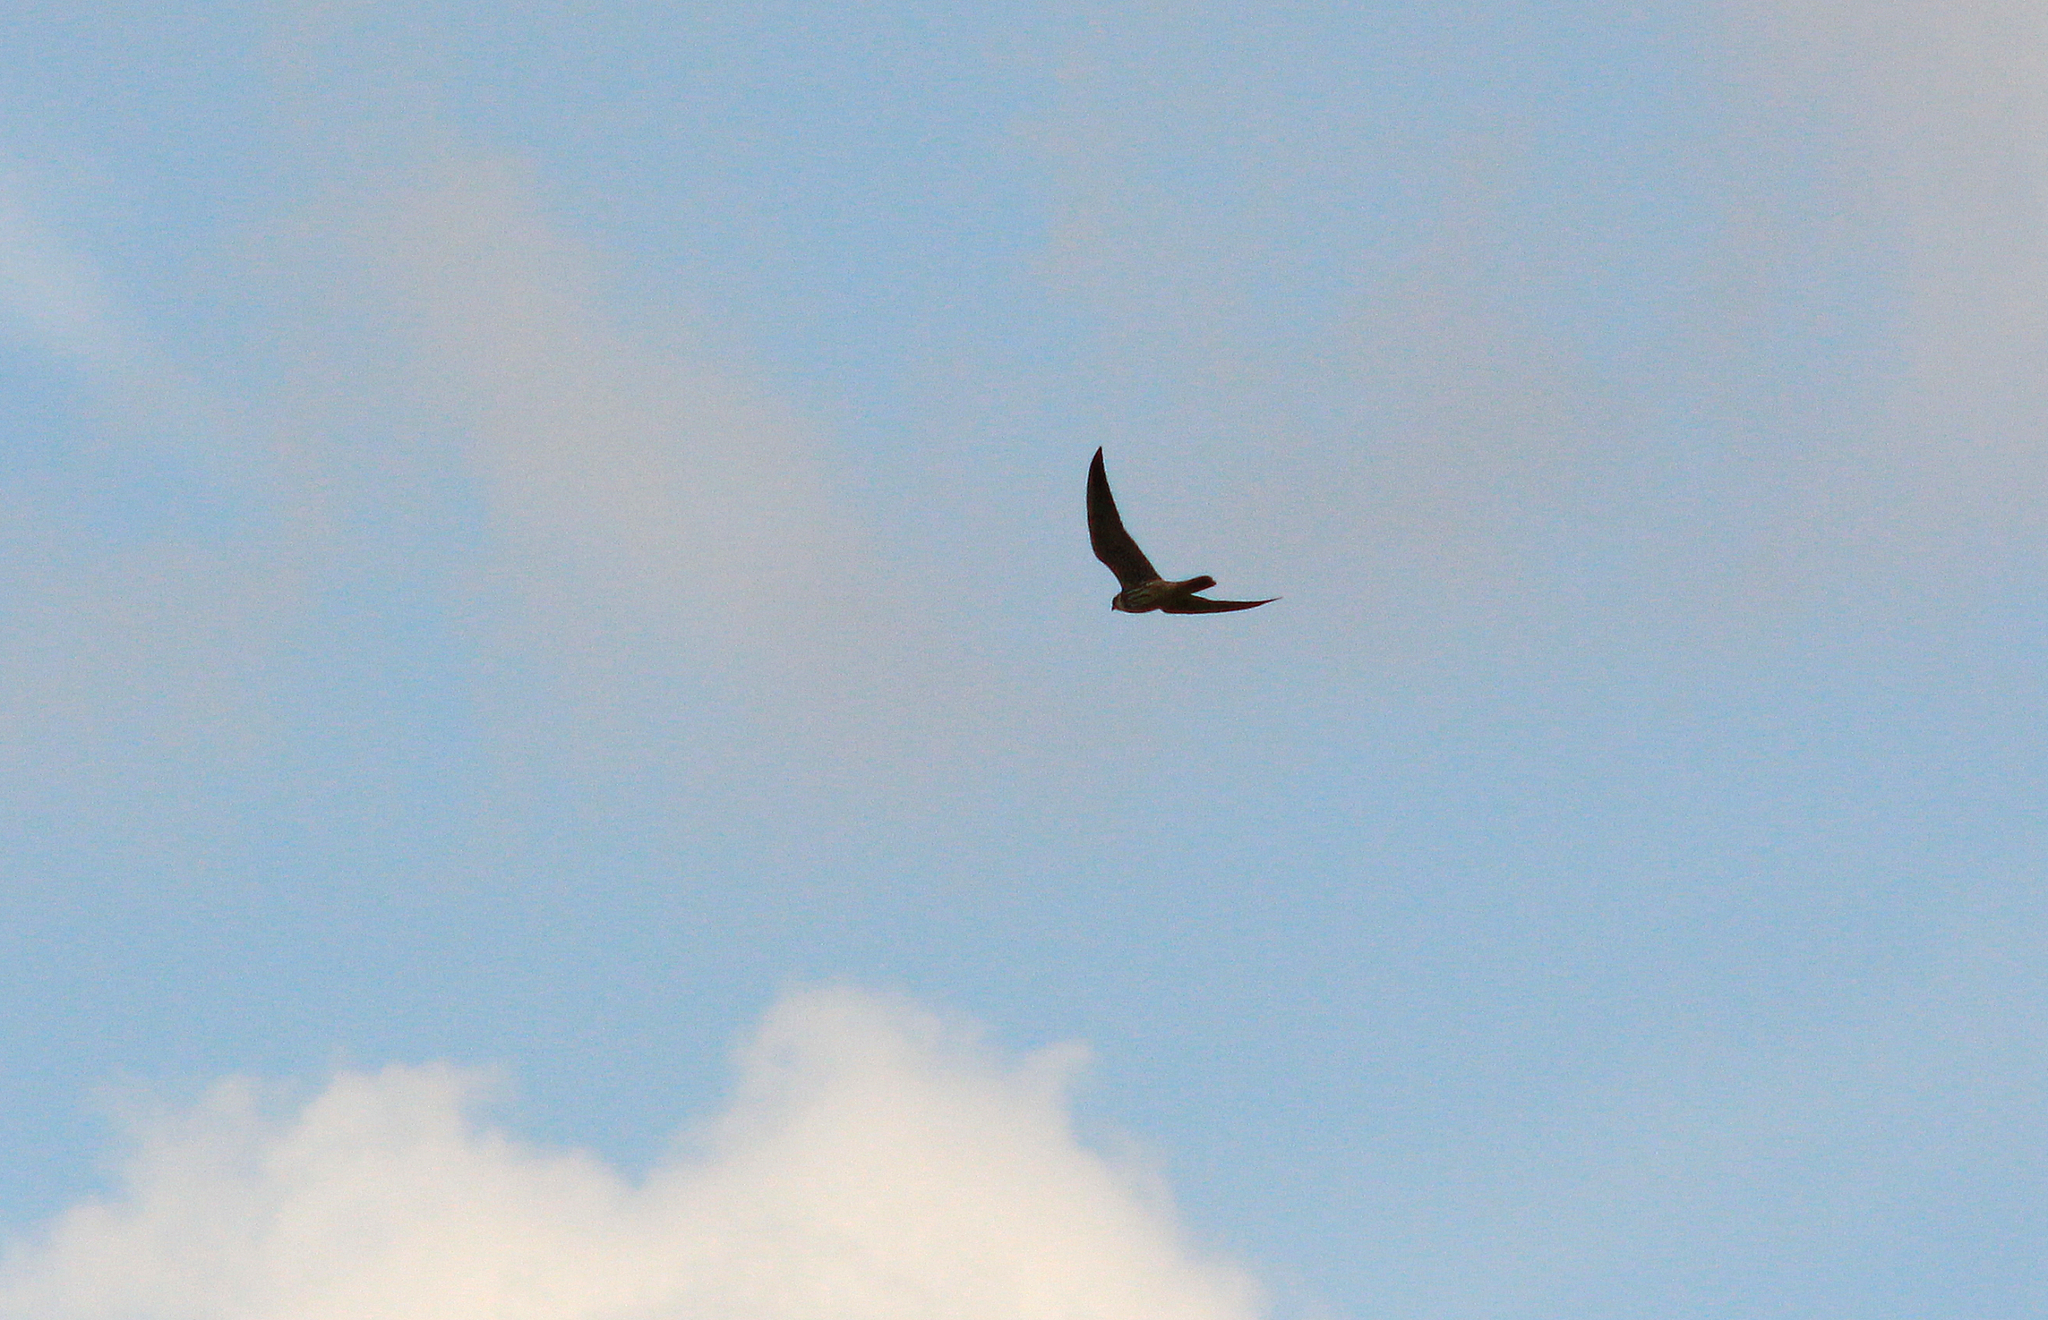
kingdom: Animalia
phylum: Chordata
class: Aves
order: Falconiformes
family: Falconidae
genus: Falco
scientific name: Falco subbuteo
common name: Eurasian hobby
